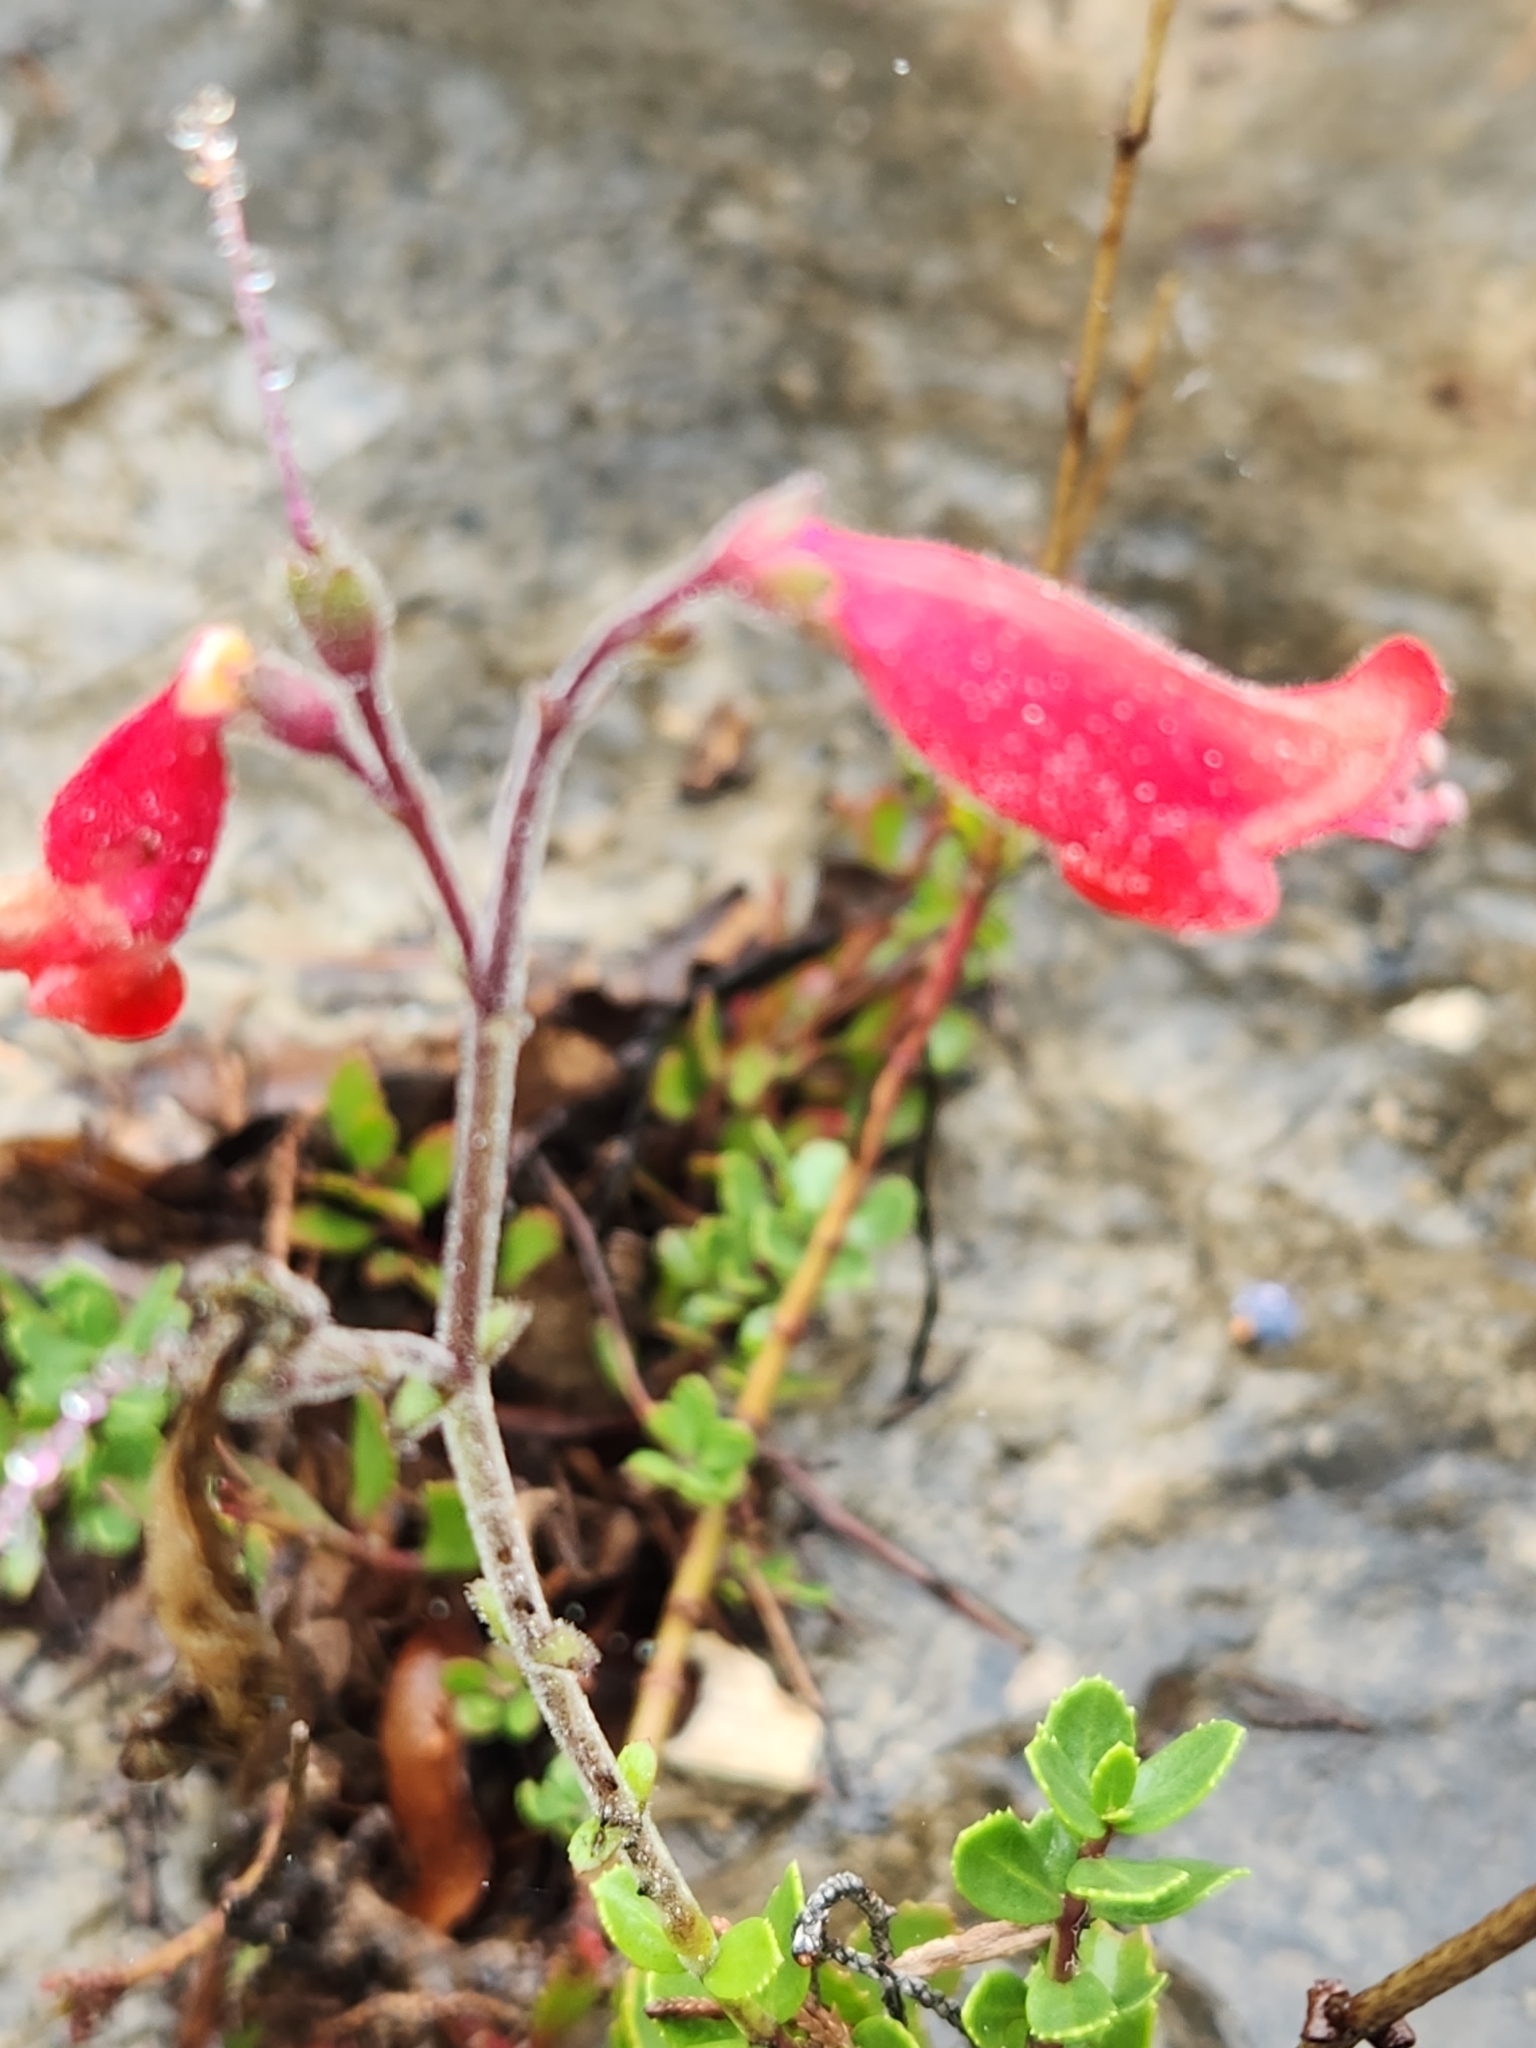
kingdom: Plantae
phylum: Tracheophyta
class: Magnoliopsida
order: Lamiales
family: Plantaginaceae
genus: Penstemon
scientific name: Penstemon baccharifolius
